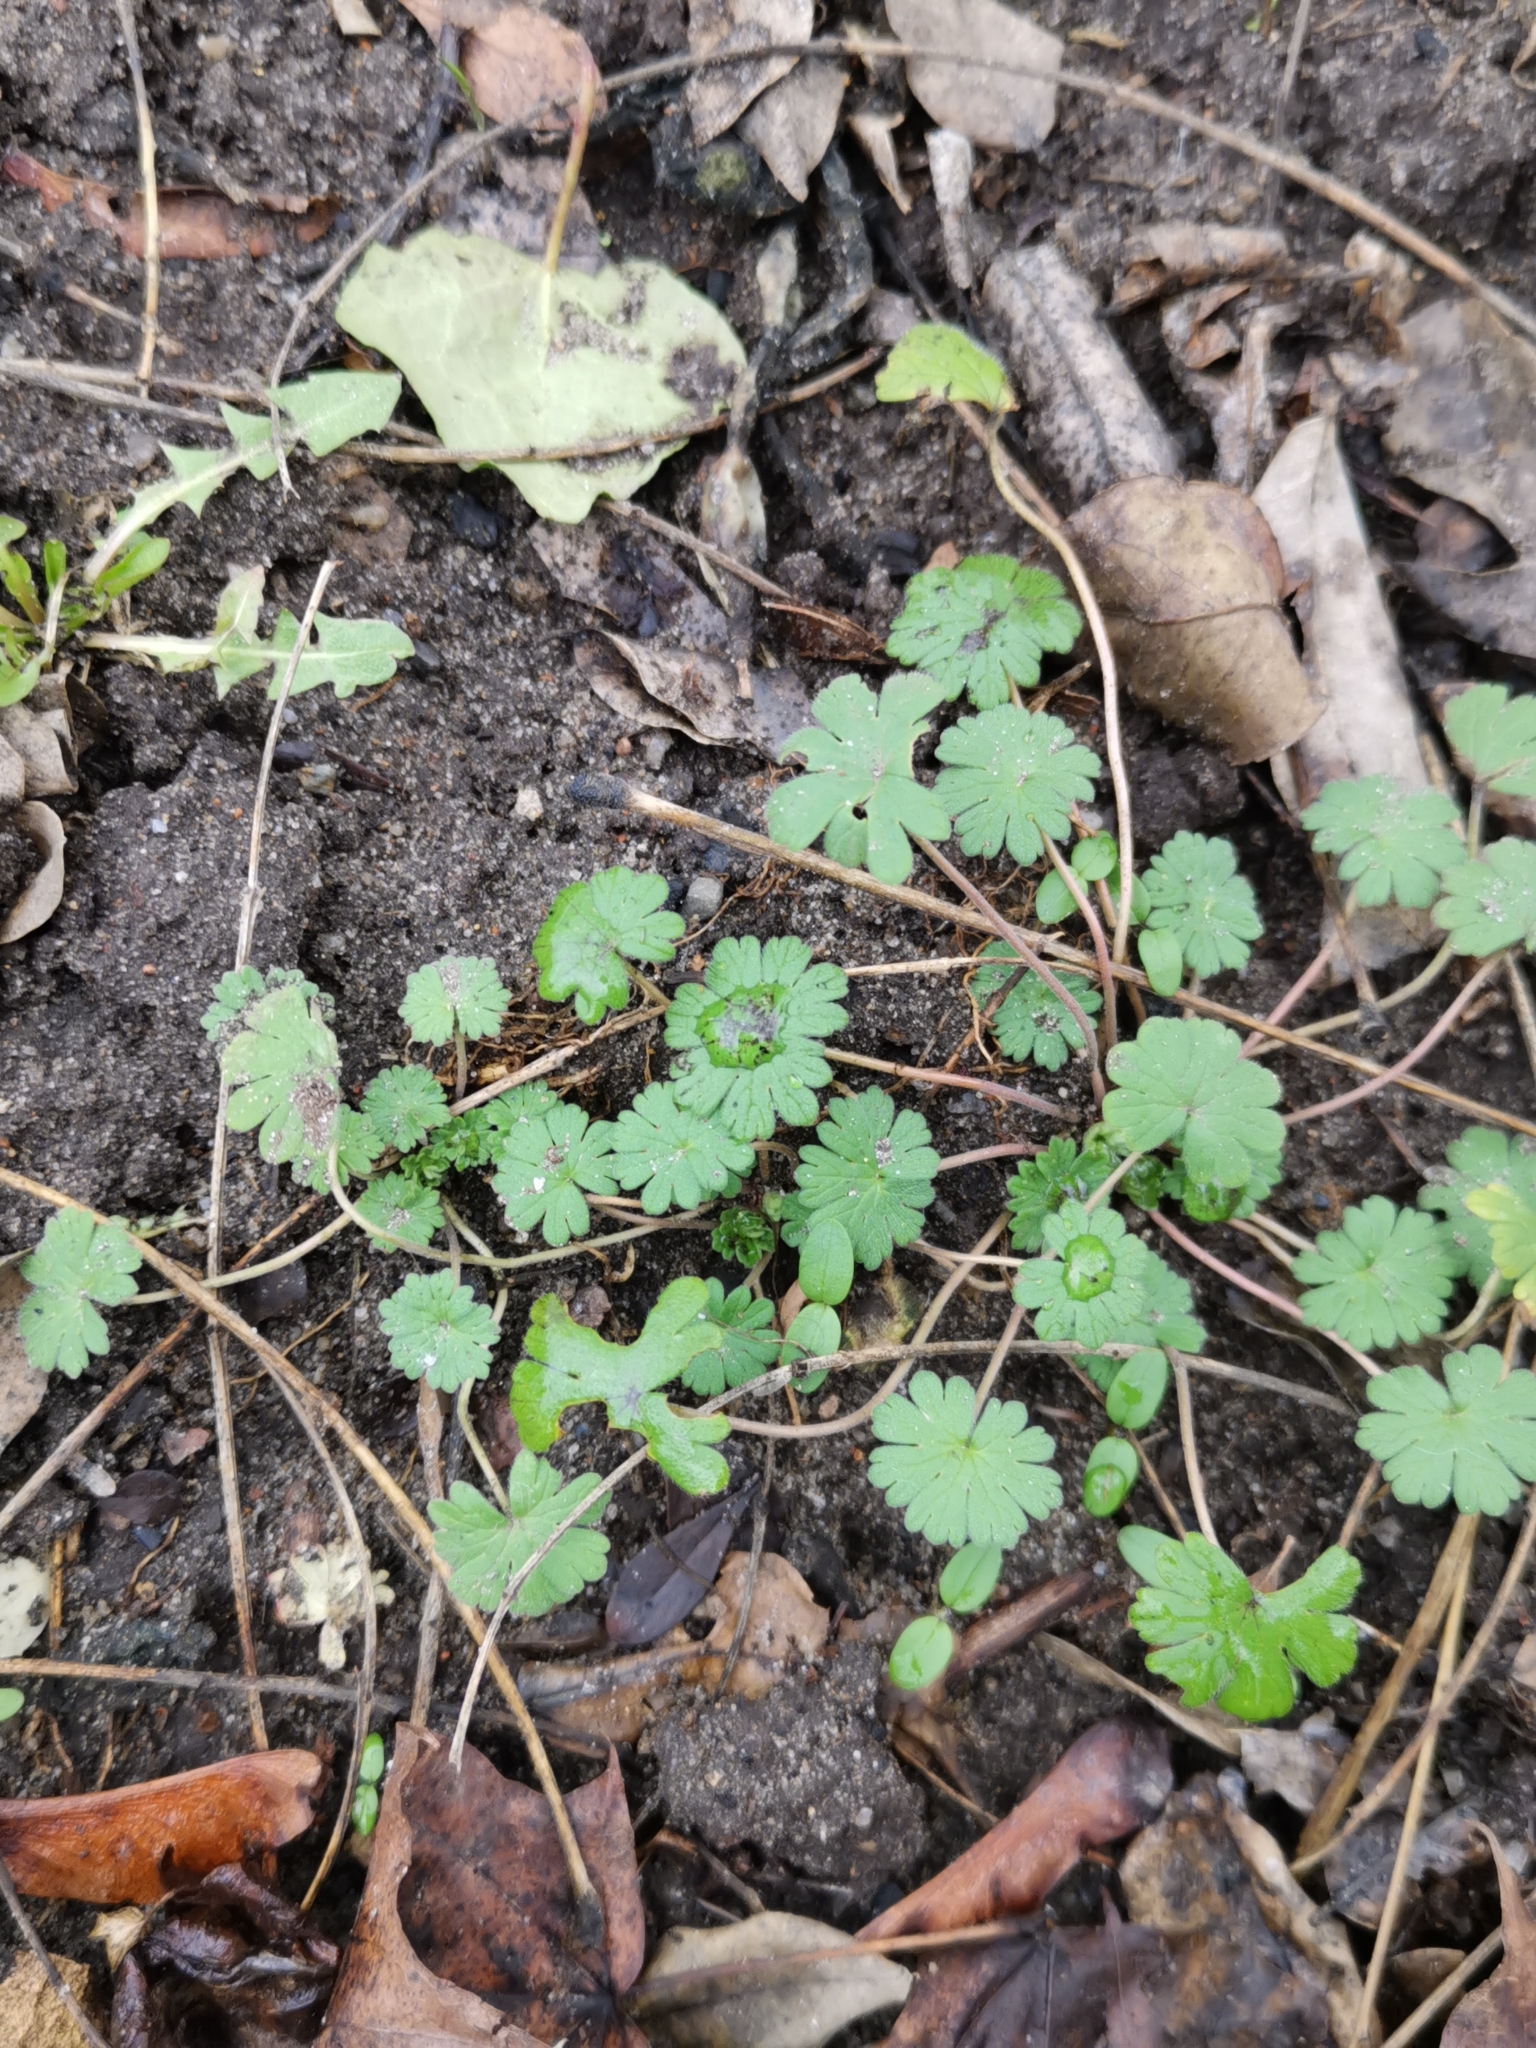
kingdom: Plantae
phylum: Tracheophyta
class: Magnoliopsida
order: Geraniales
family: Geraniaceae
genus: Geranium
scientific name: Geranium molle
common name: Dove's-foot crane's-bill
